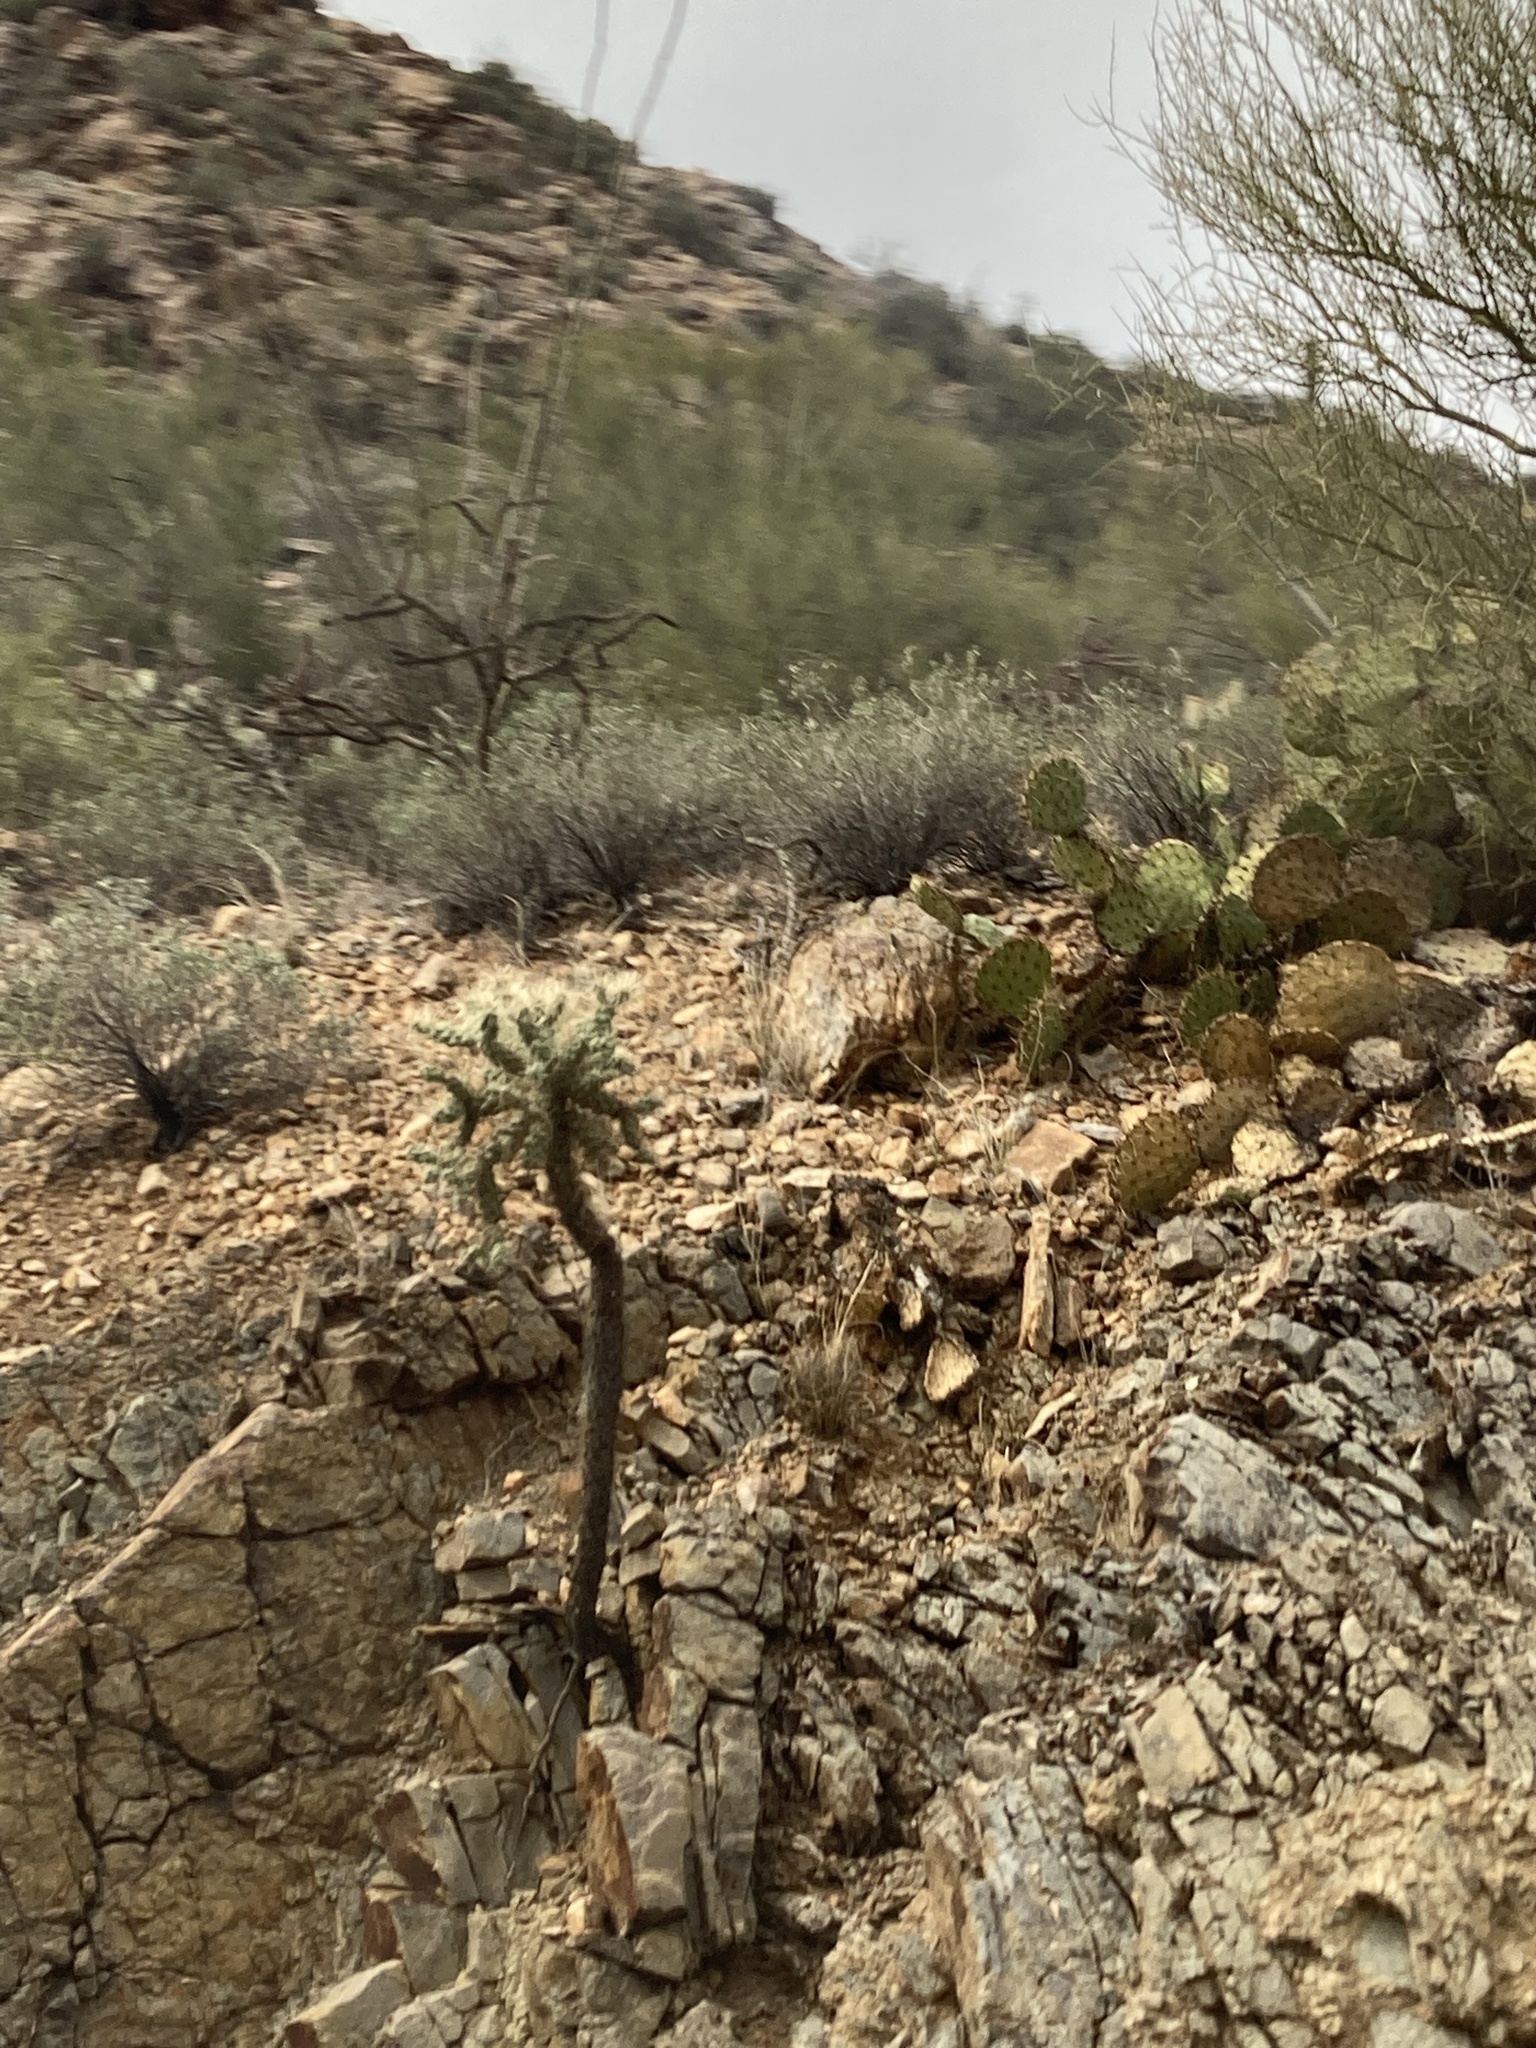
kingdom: Plantae
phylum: Tracheophyta
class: Magnoliopsida
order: Caryophyllales
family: Cactaceae
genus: Cylindropuntia
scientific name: Cylindropuntia fosbergii
